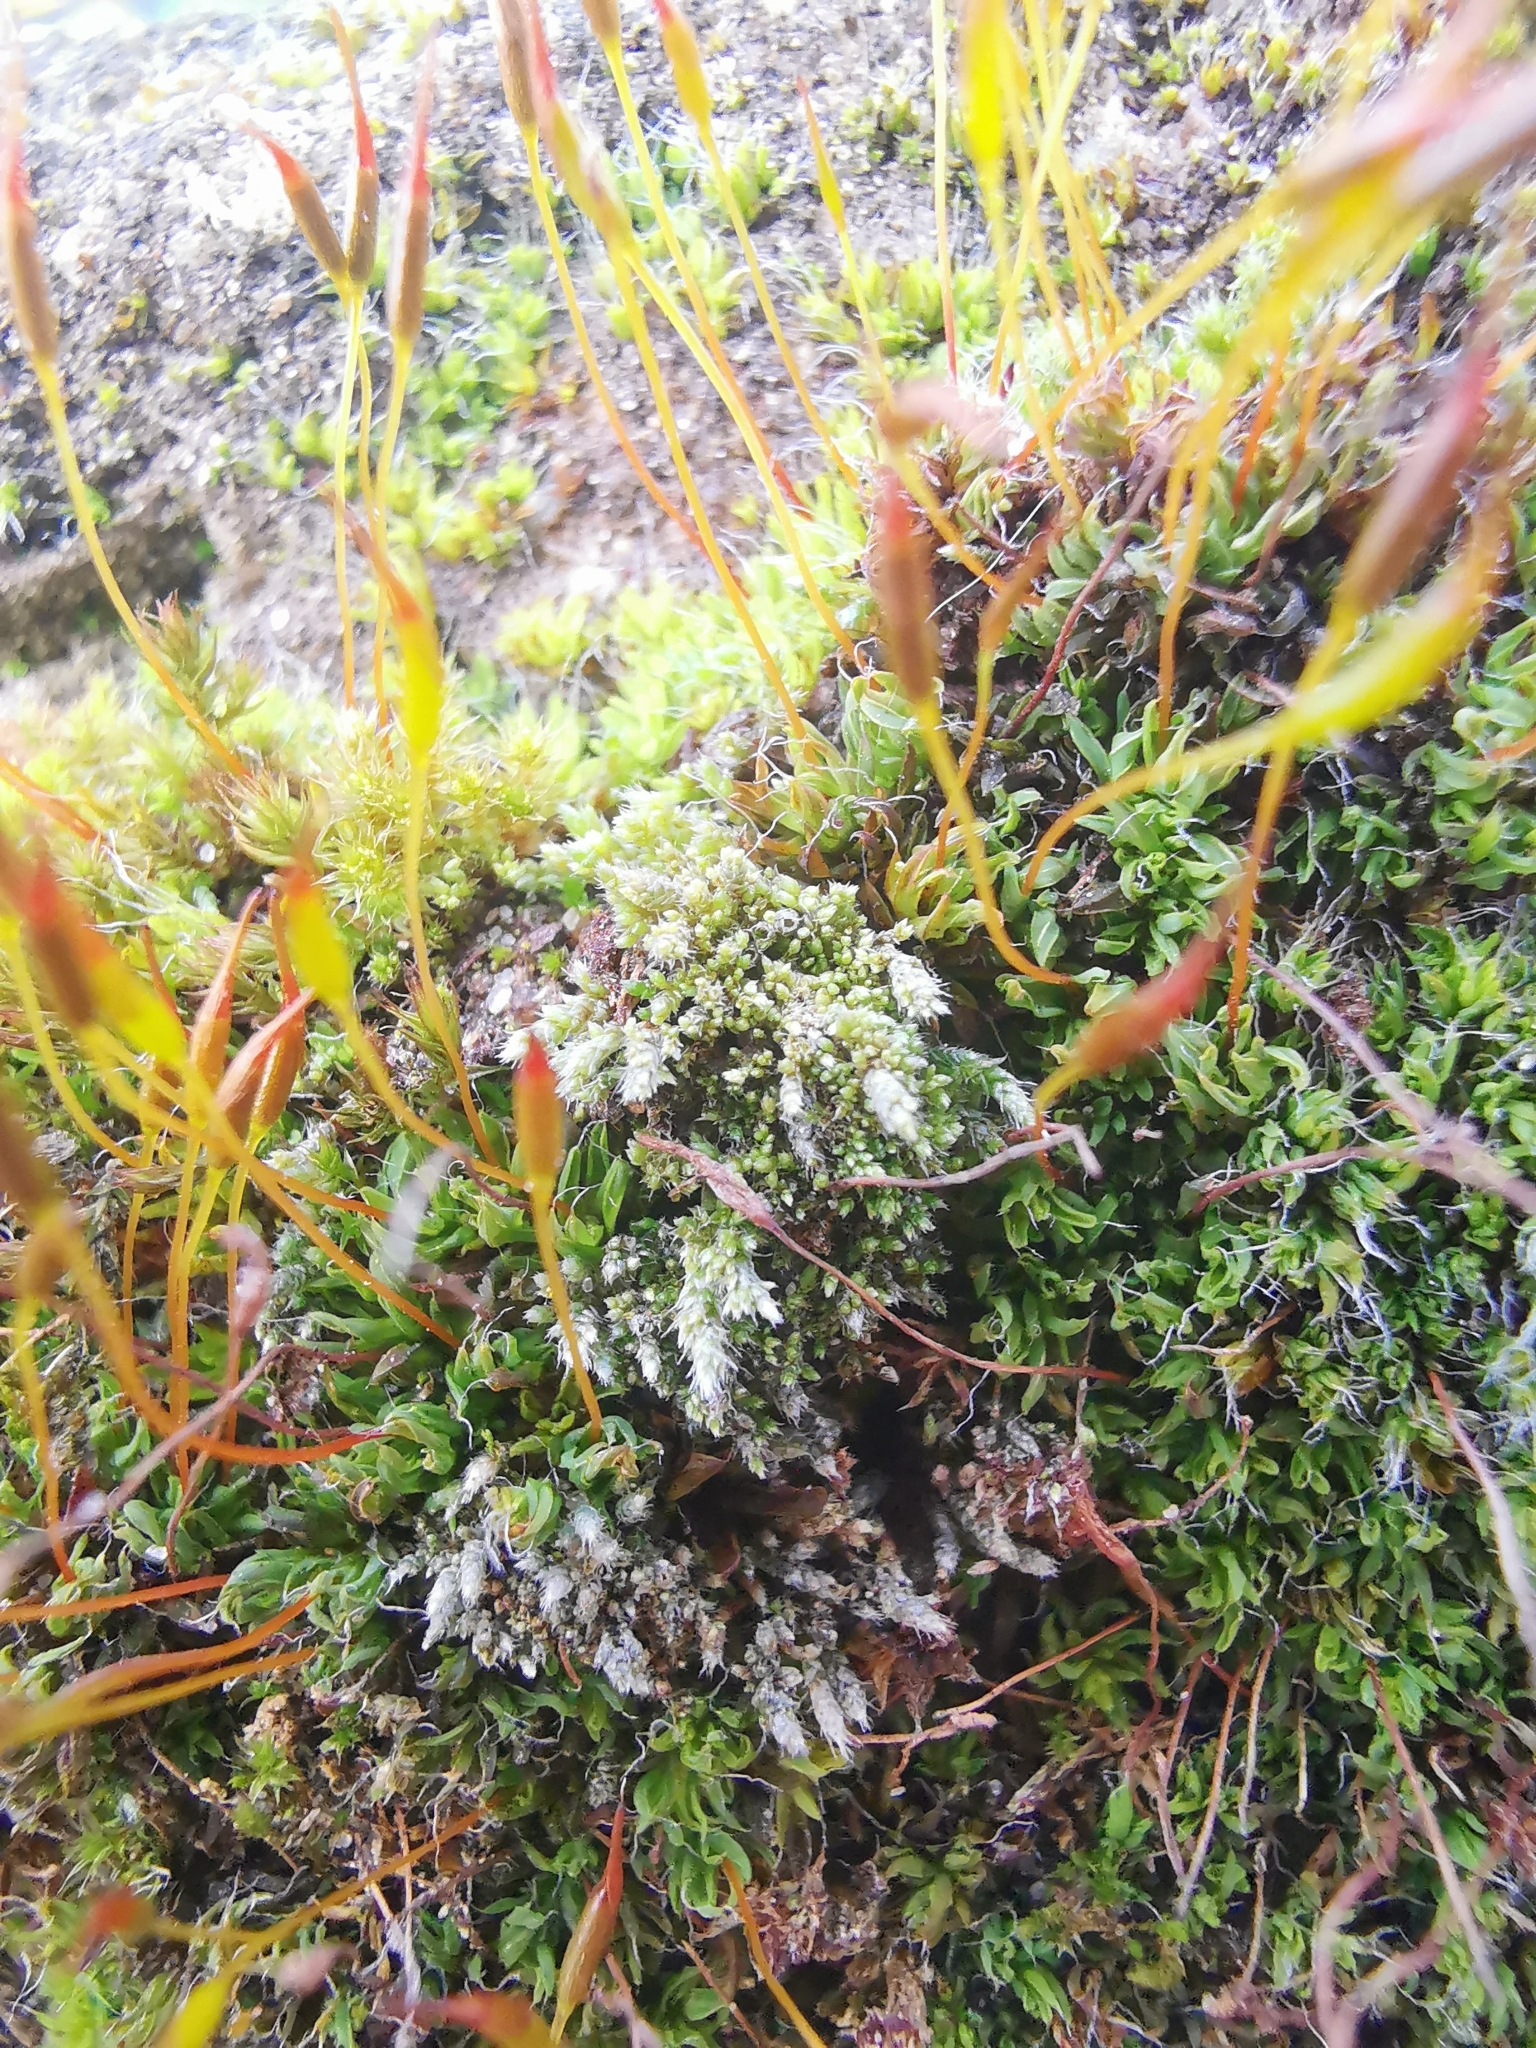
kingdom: Plantae
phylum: Bryophyta
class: Bryopsida
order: Bryales
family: Bryaceae
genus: Bryum
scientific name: Bryum argenteum
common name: Silver-moss
